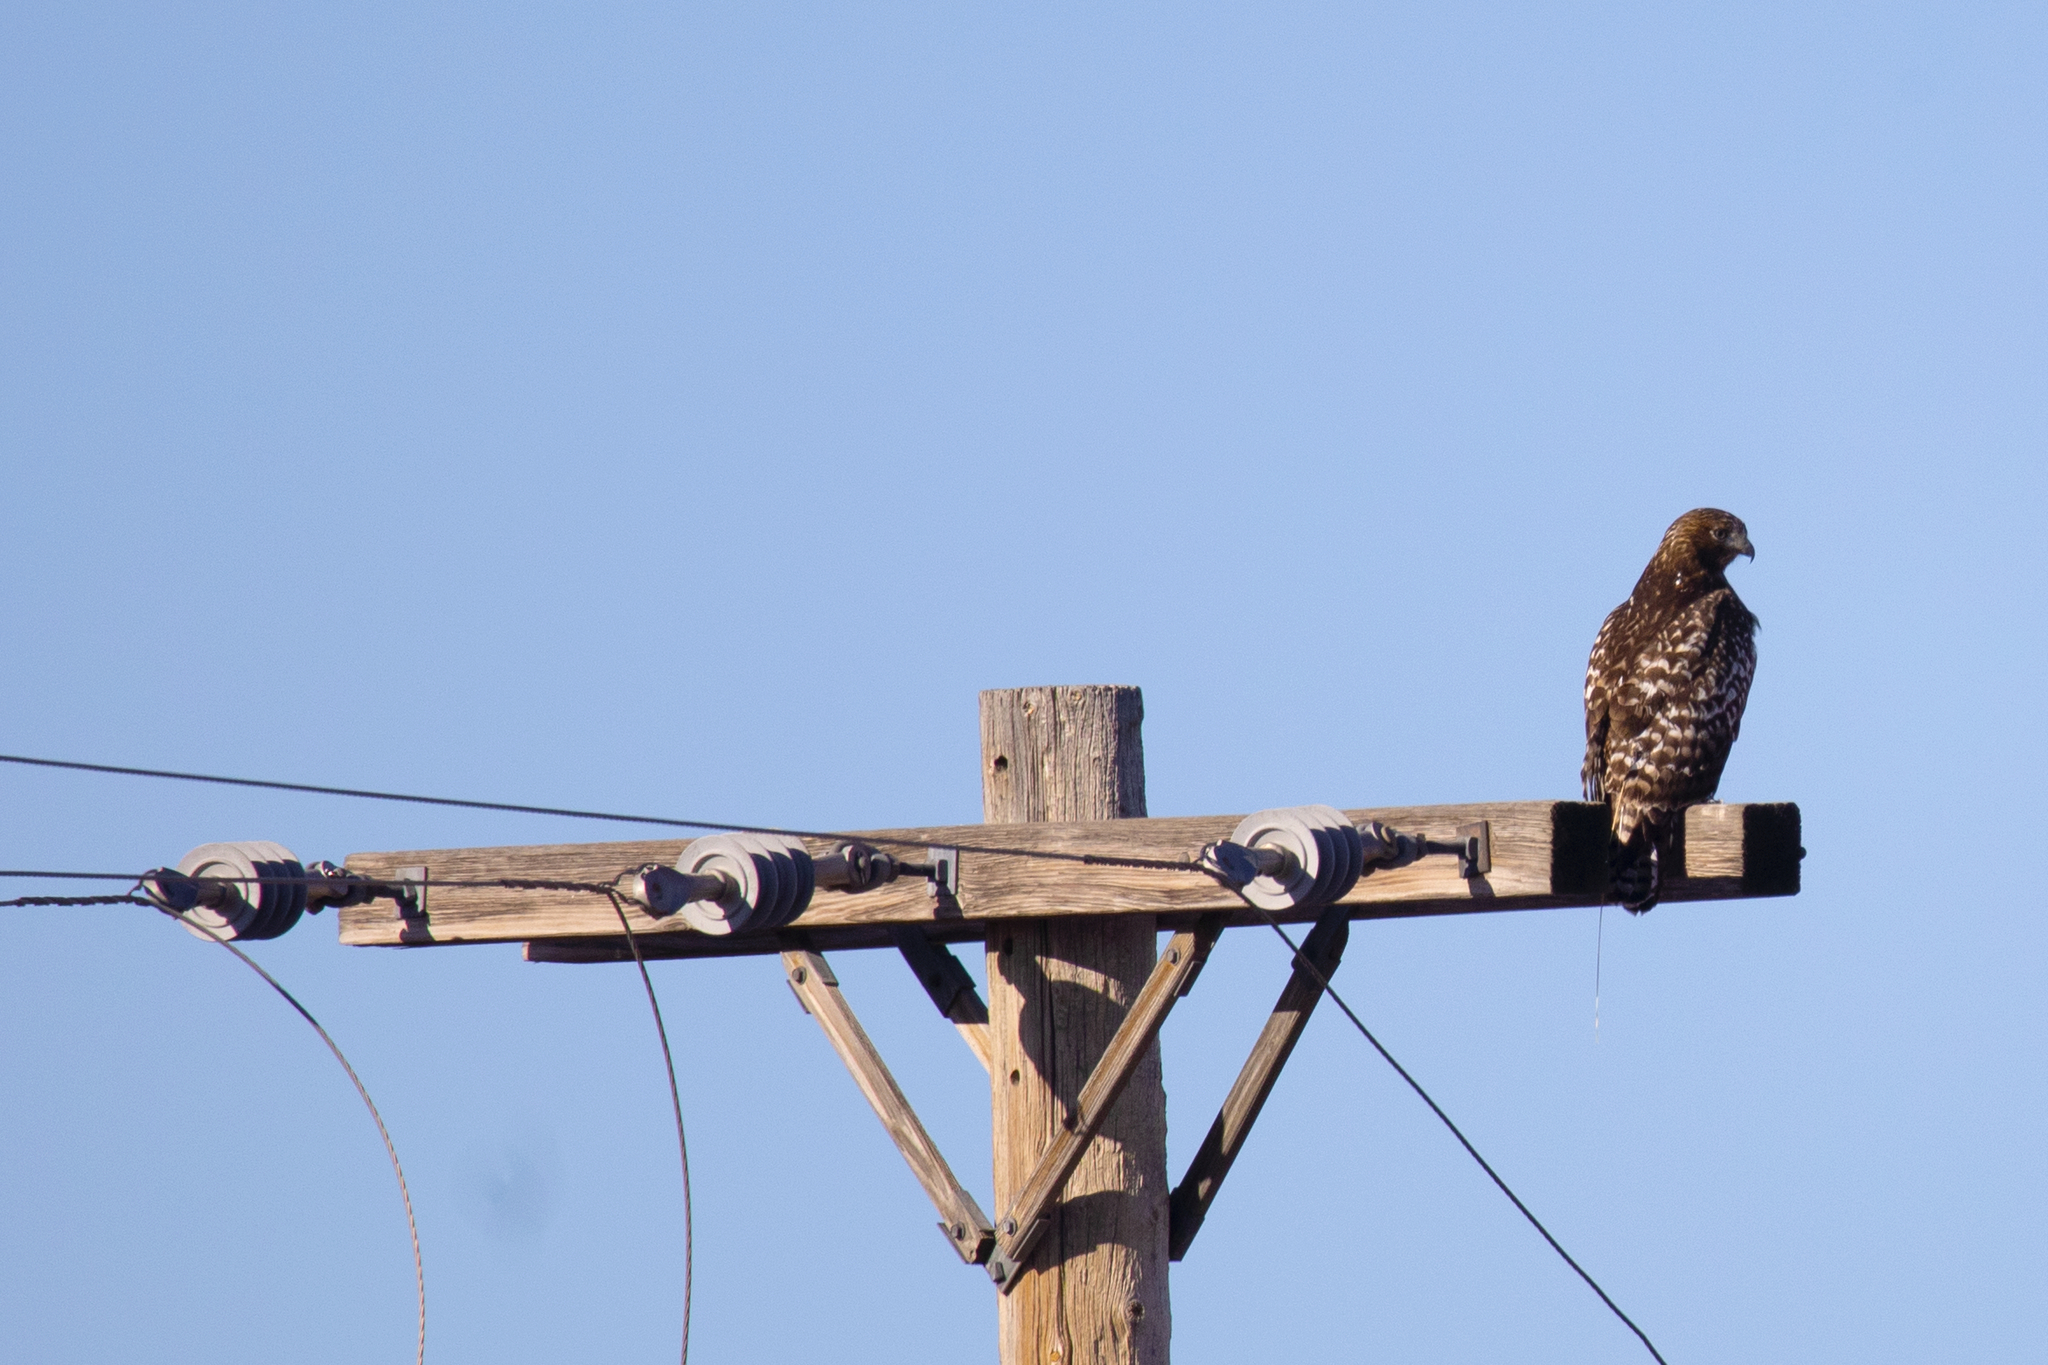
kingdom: Animalia
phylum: Chordata
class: Aves
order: Accipitriformes
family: Accipitridae
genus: Buteo
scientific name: Buteo jamaicensis
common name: Red-tailed hawk
